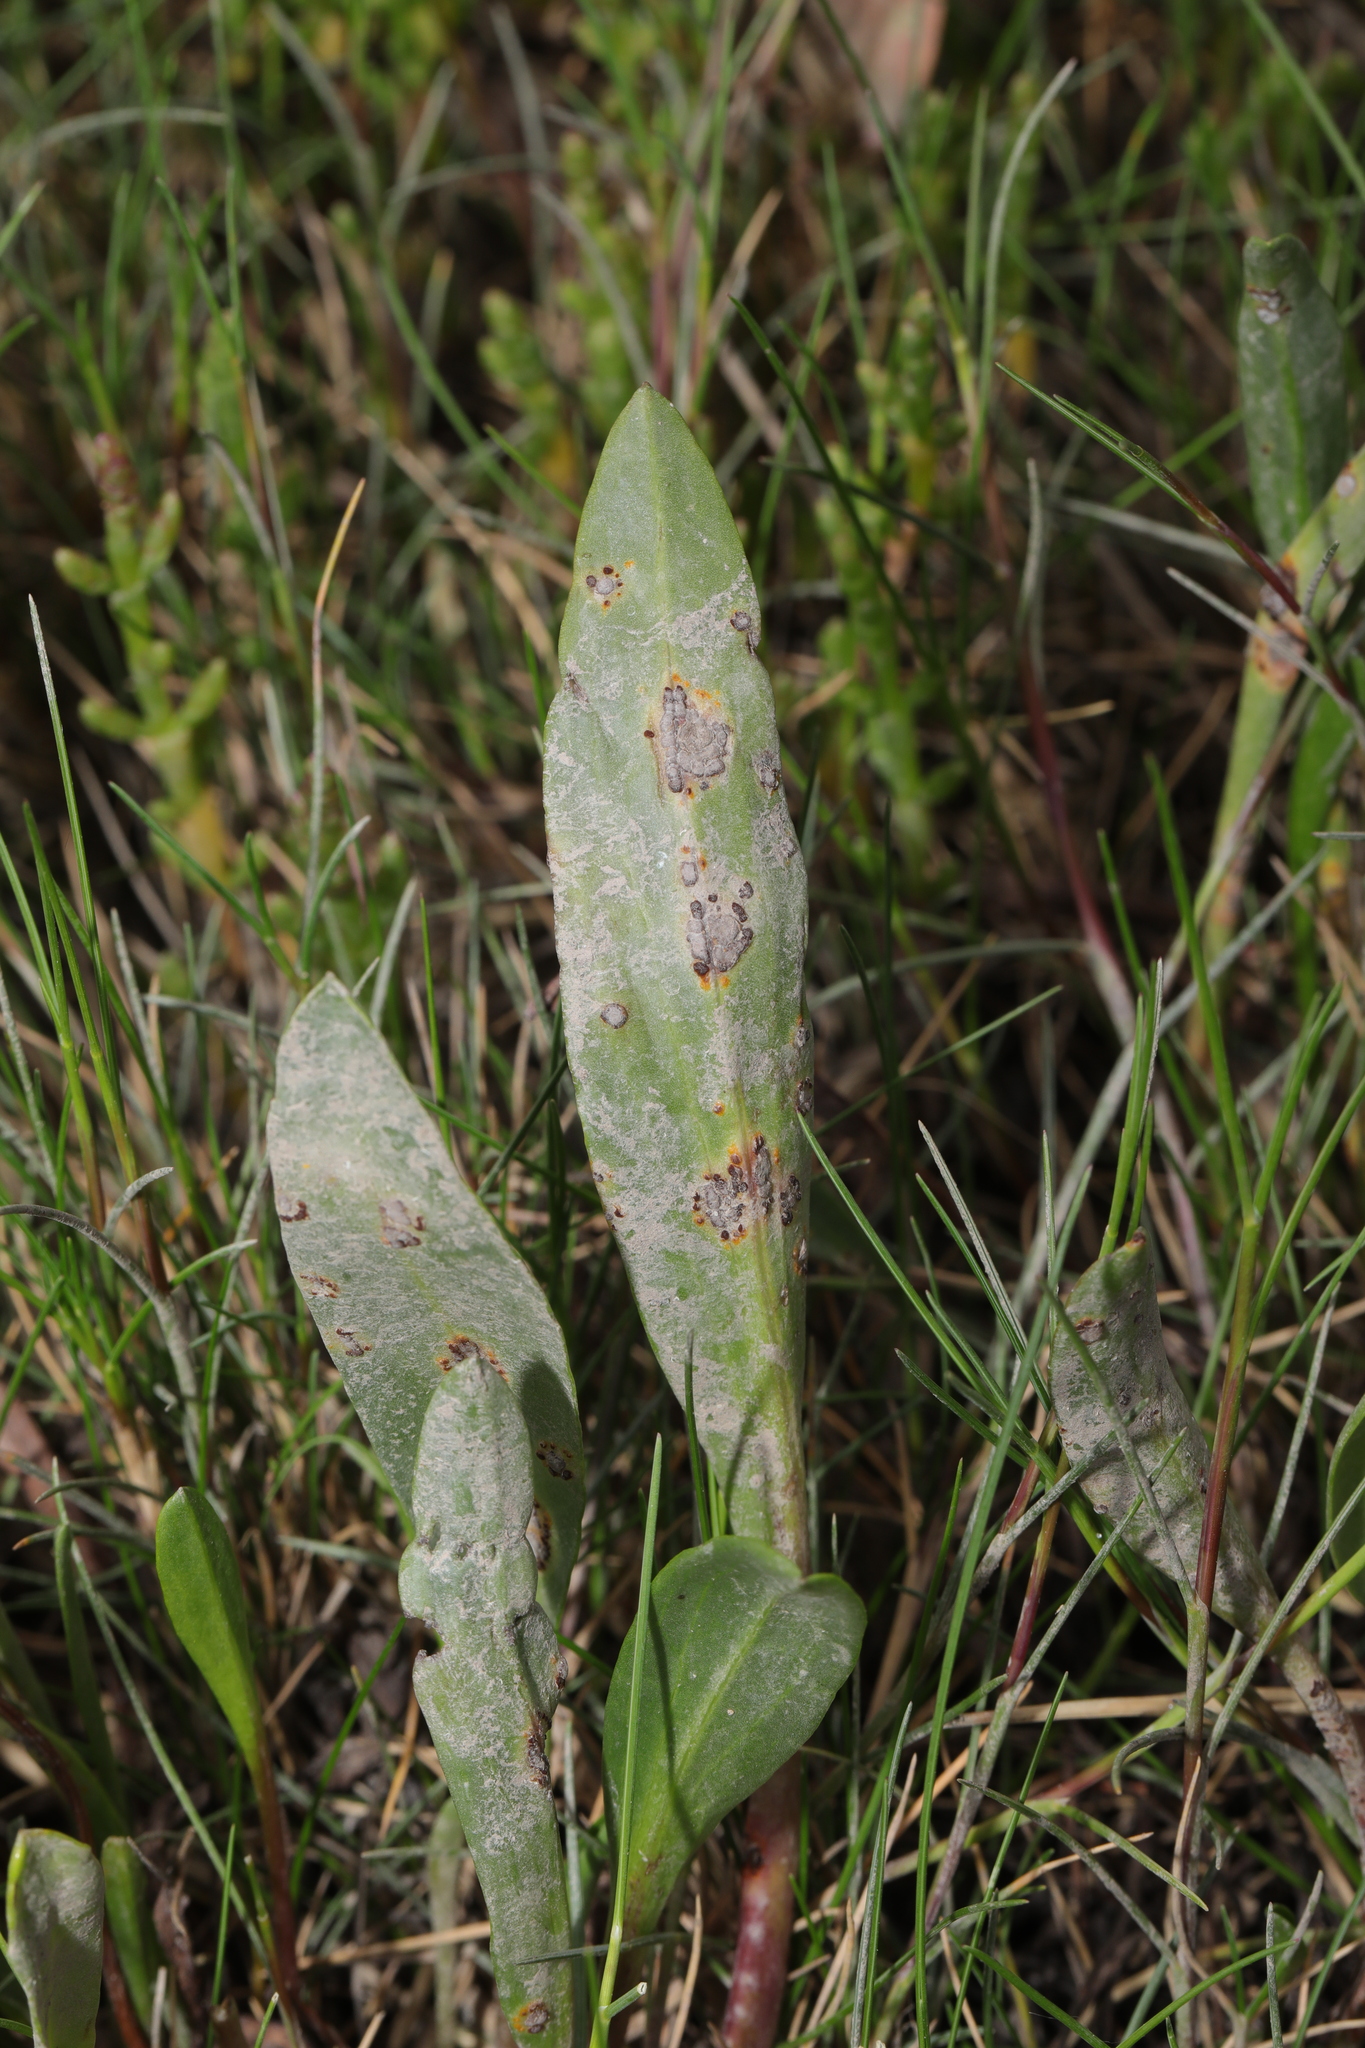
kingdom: Fungi
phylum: Basidiomycota
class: Pucciniomycetes
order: Pucciniales
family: Pucciniaceae
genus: Puccinia
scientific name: Puccinia cnici-oleracei
